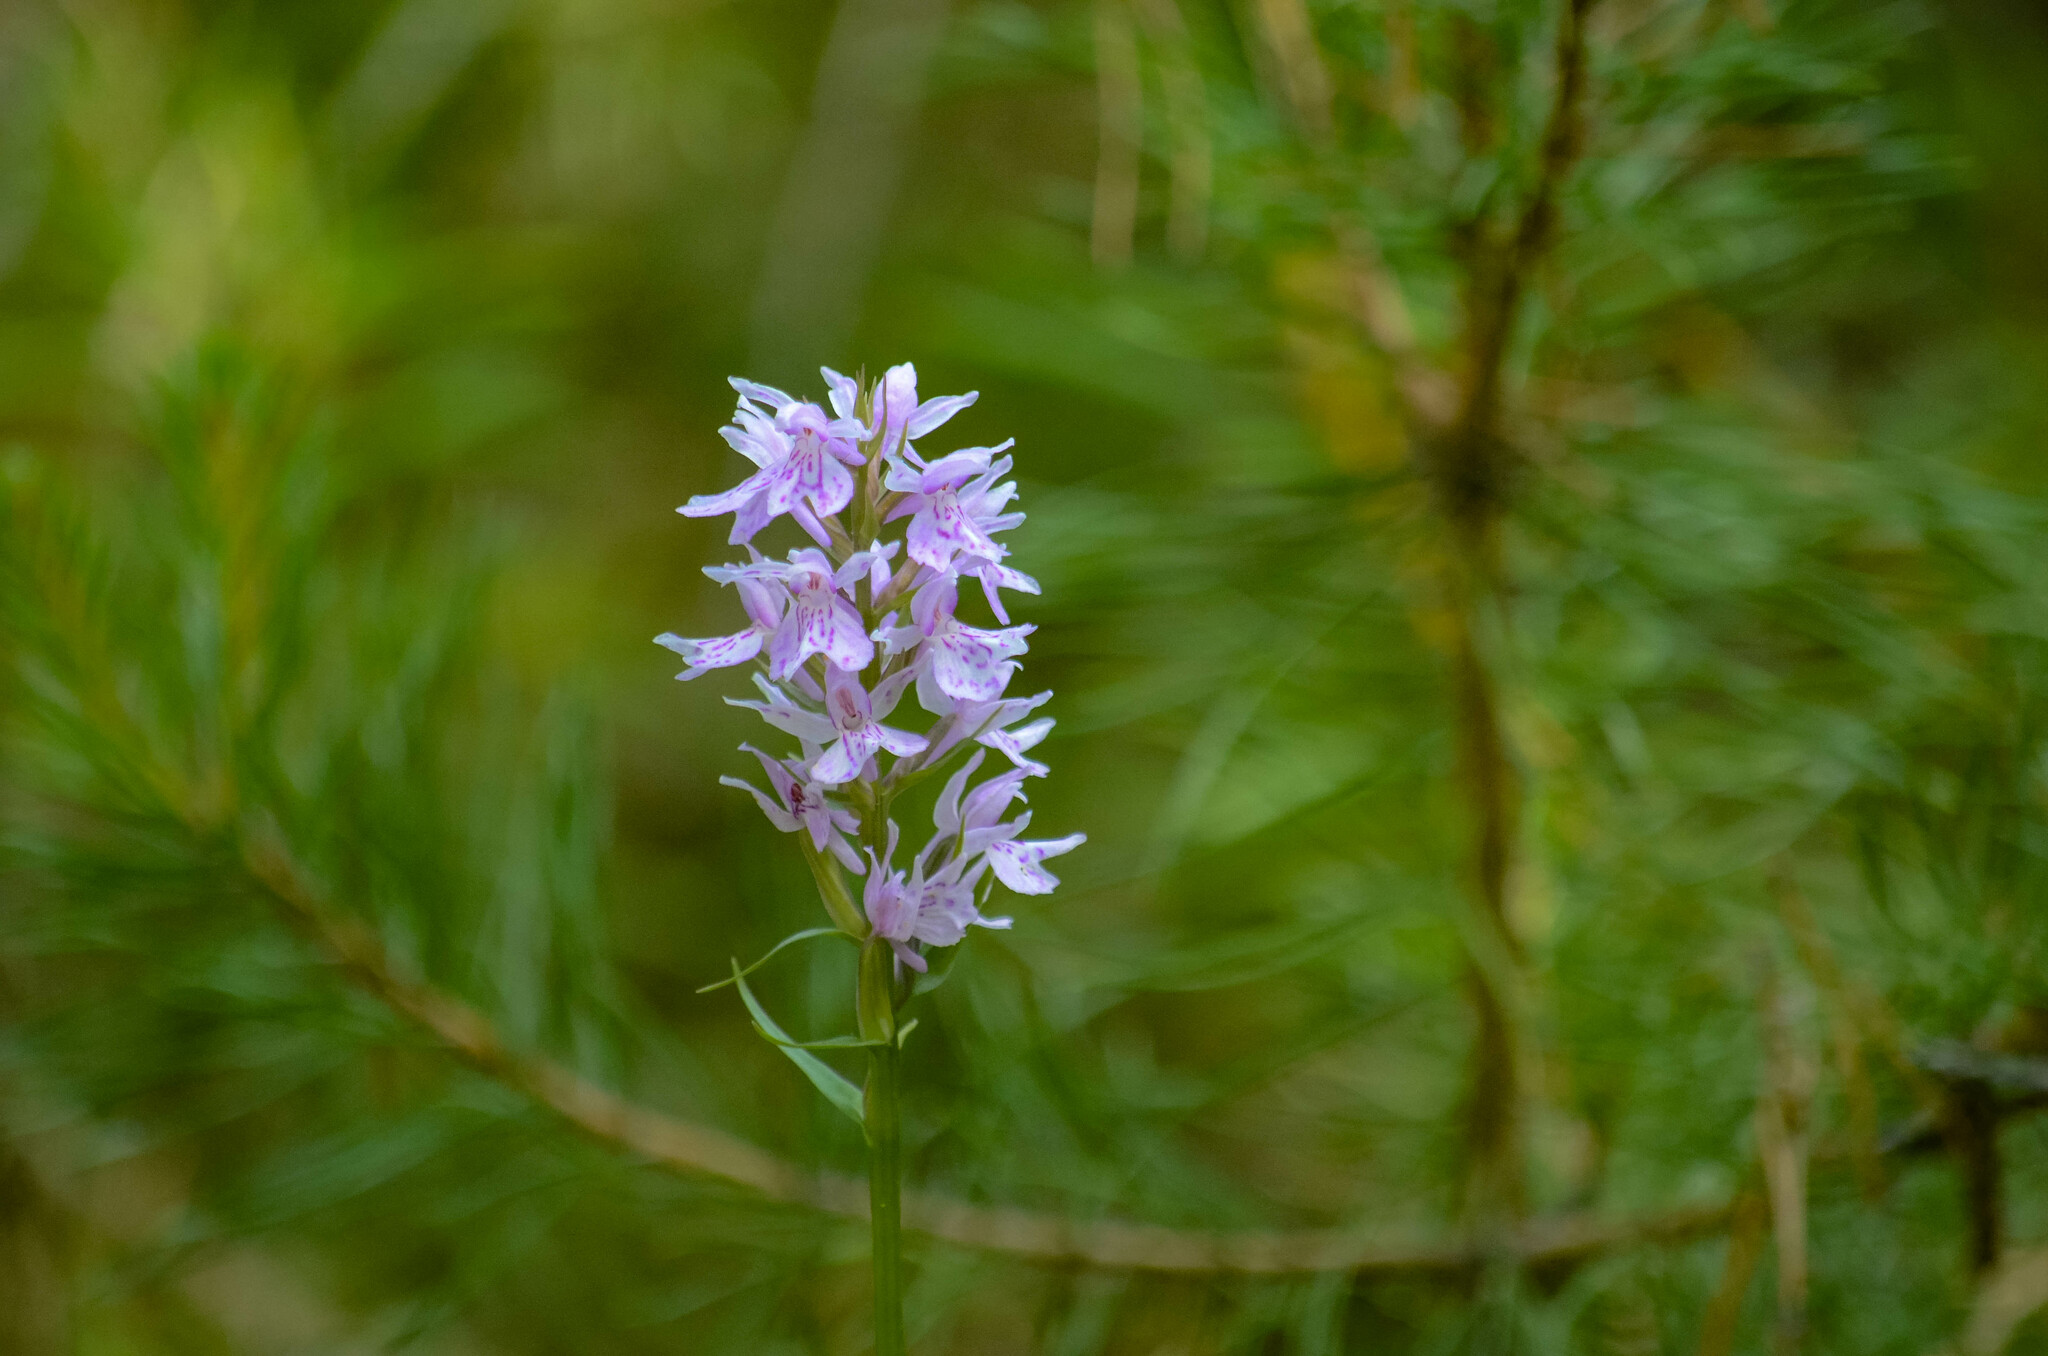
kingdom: Plantae
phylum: Tracheophyta
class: Liliopsida
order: Asparagales
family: Orchidaceae
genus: Dactylorhiza
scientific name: Dactylorhiza maculata
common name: Heath spotted-orchid
